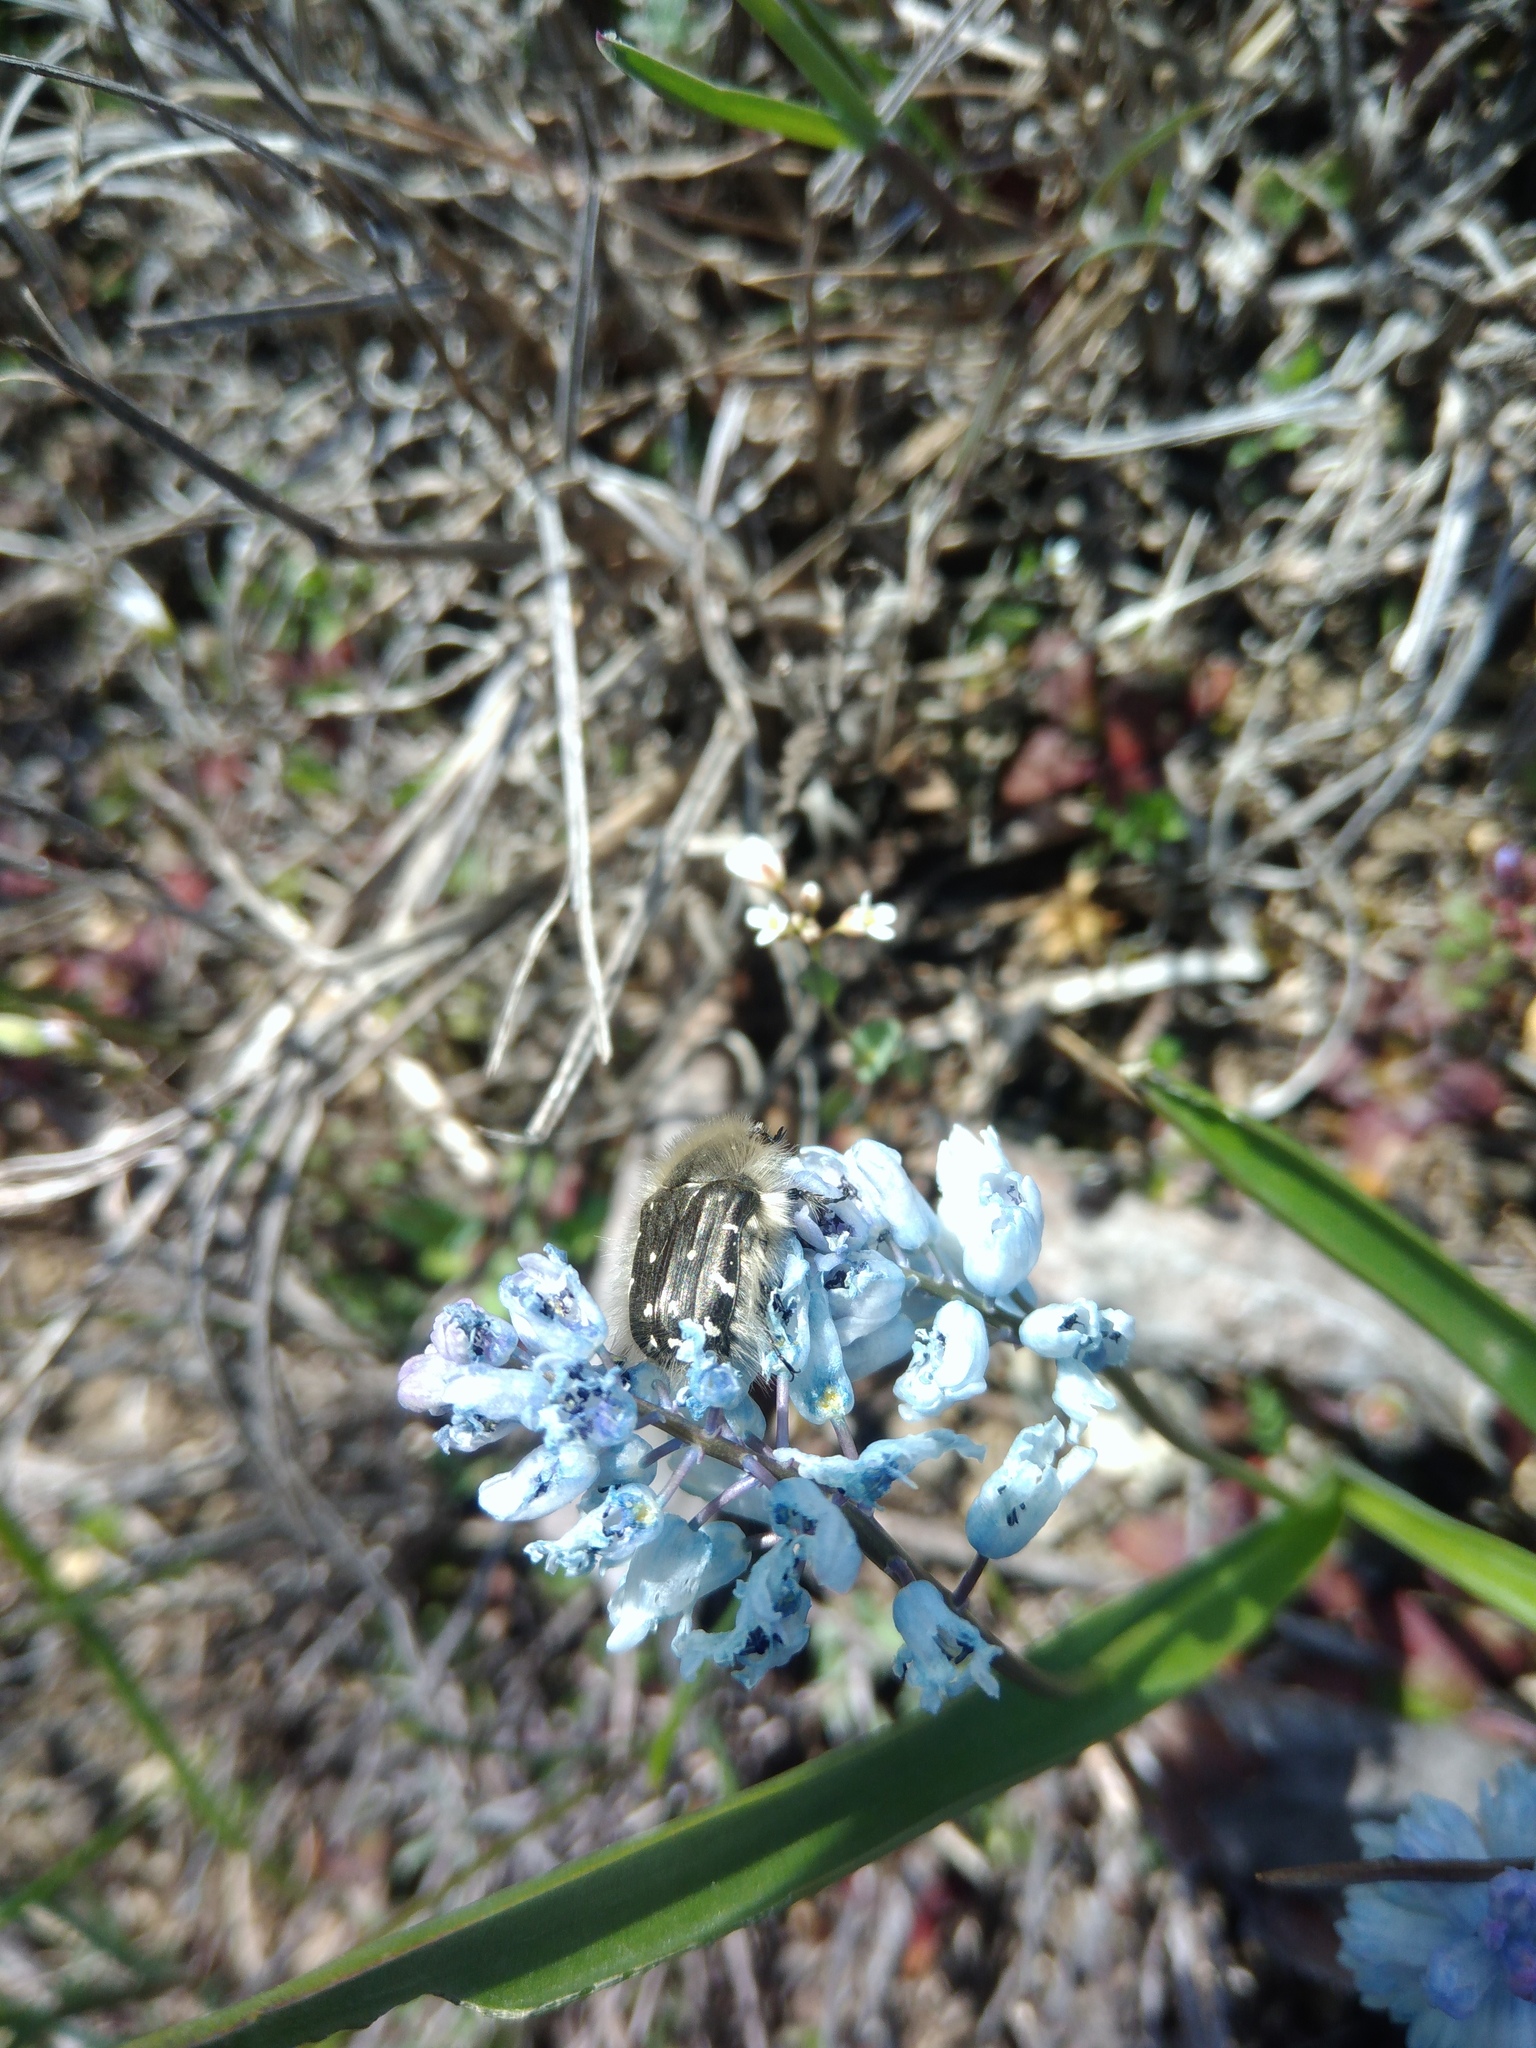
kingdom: Animalia
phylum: Arthropoda
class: Insecta
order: Coleoptera
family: Scarabaeidae
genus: Tropinota
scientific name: Tropinota hirta
